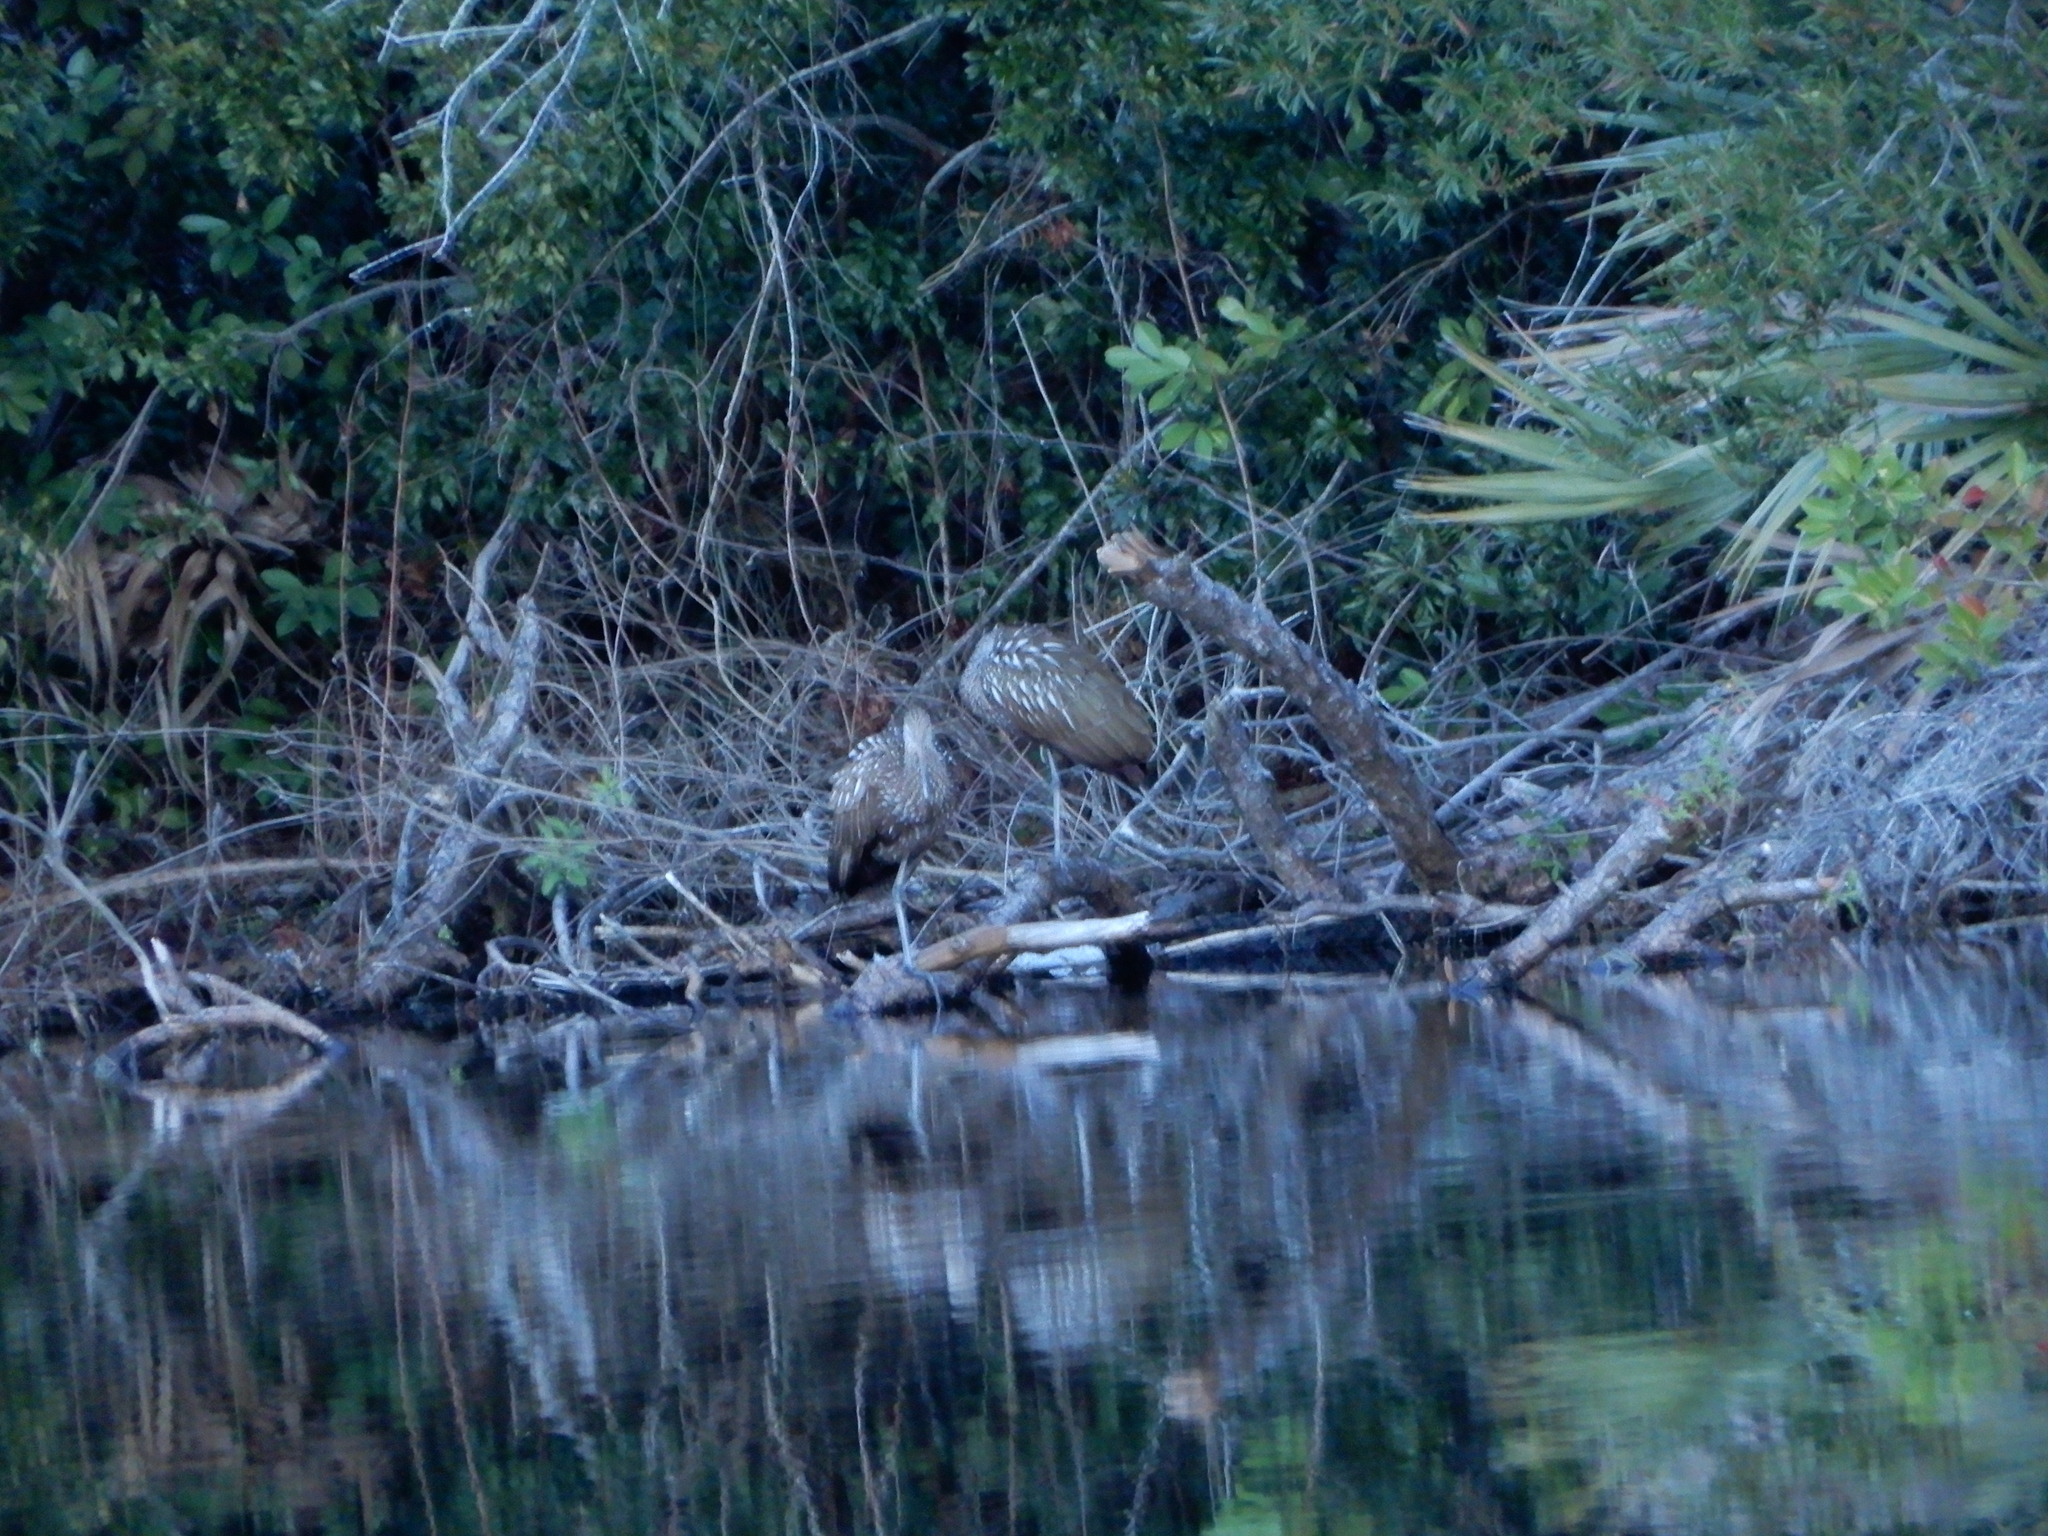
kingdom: Animalia
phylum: Chordata
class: Aves
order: Gruiformes
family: Aramidae
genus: Aramus
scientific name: Aramus guarauna
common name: Limpkin
